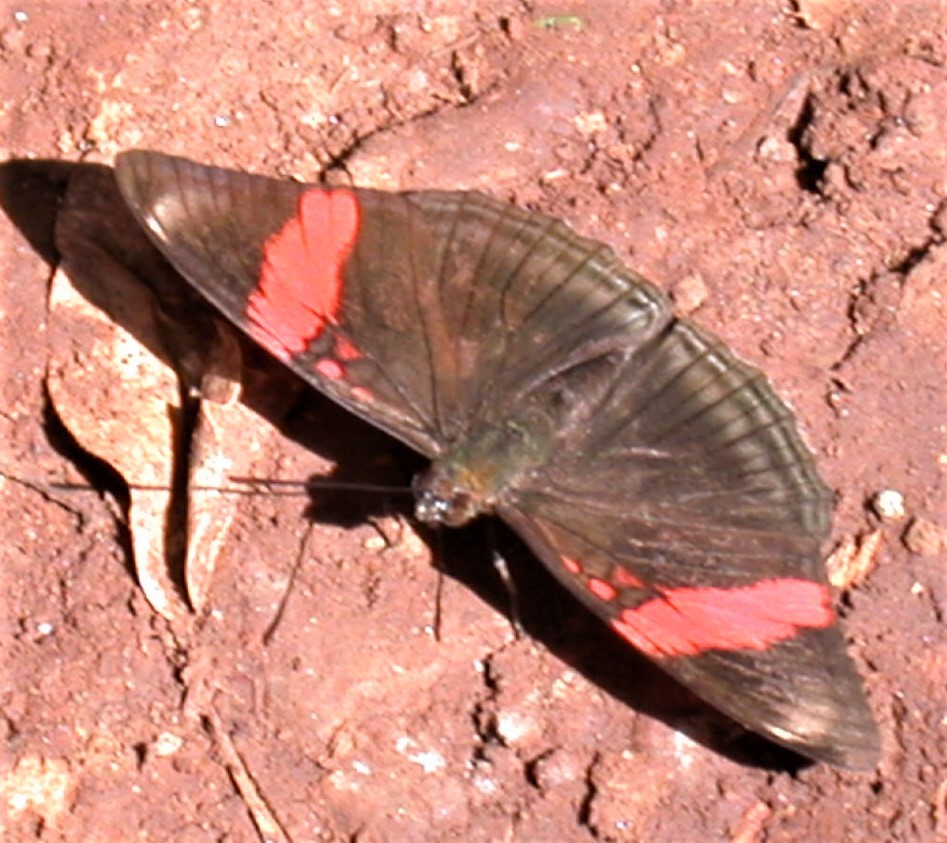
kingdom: Animalia
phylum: Arthropoda
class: Insecta
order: Lepidoptera
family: Nymphalidae
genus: Limenitis
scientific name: Limenitis isis
